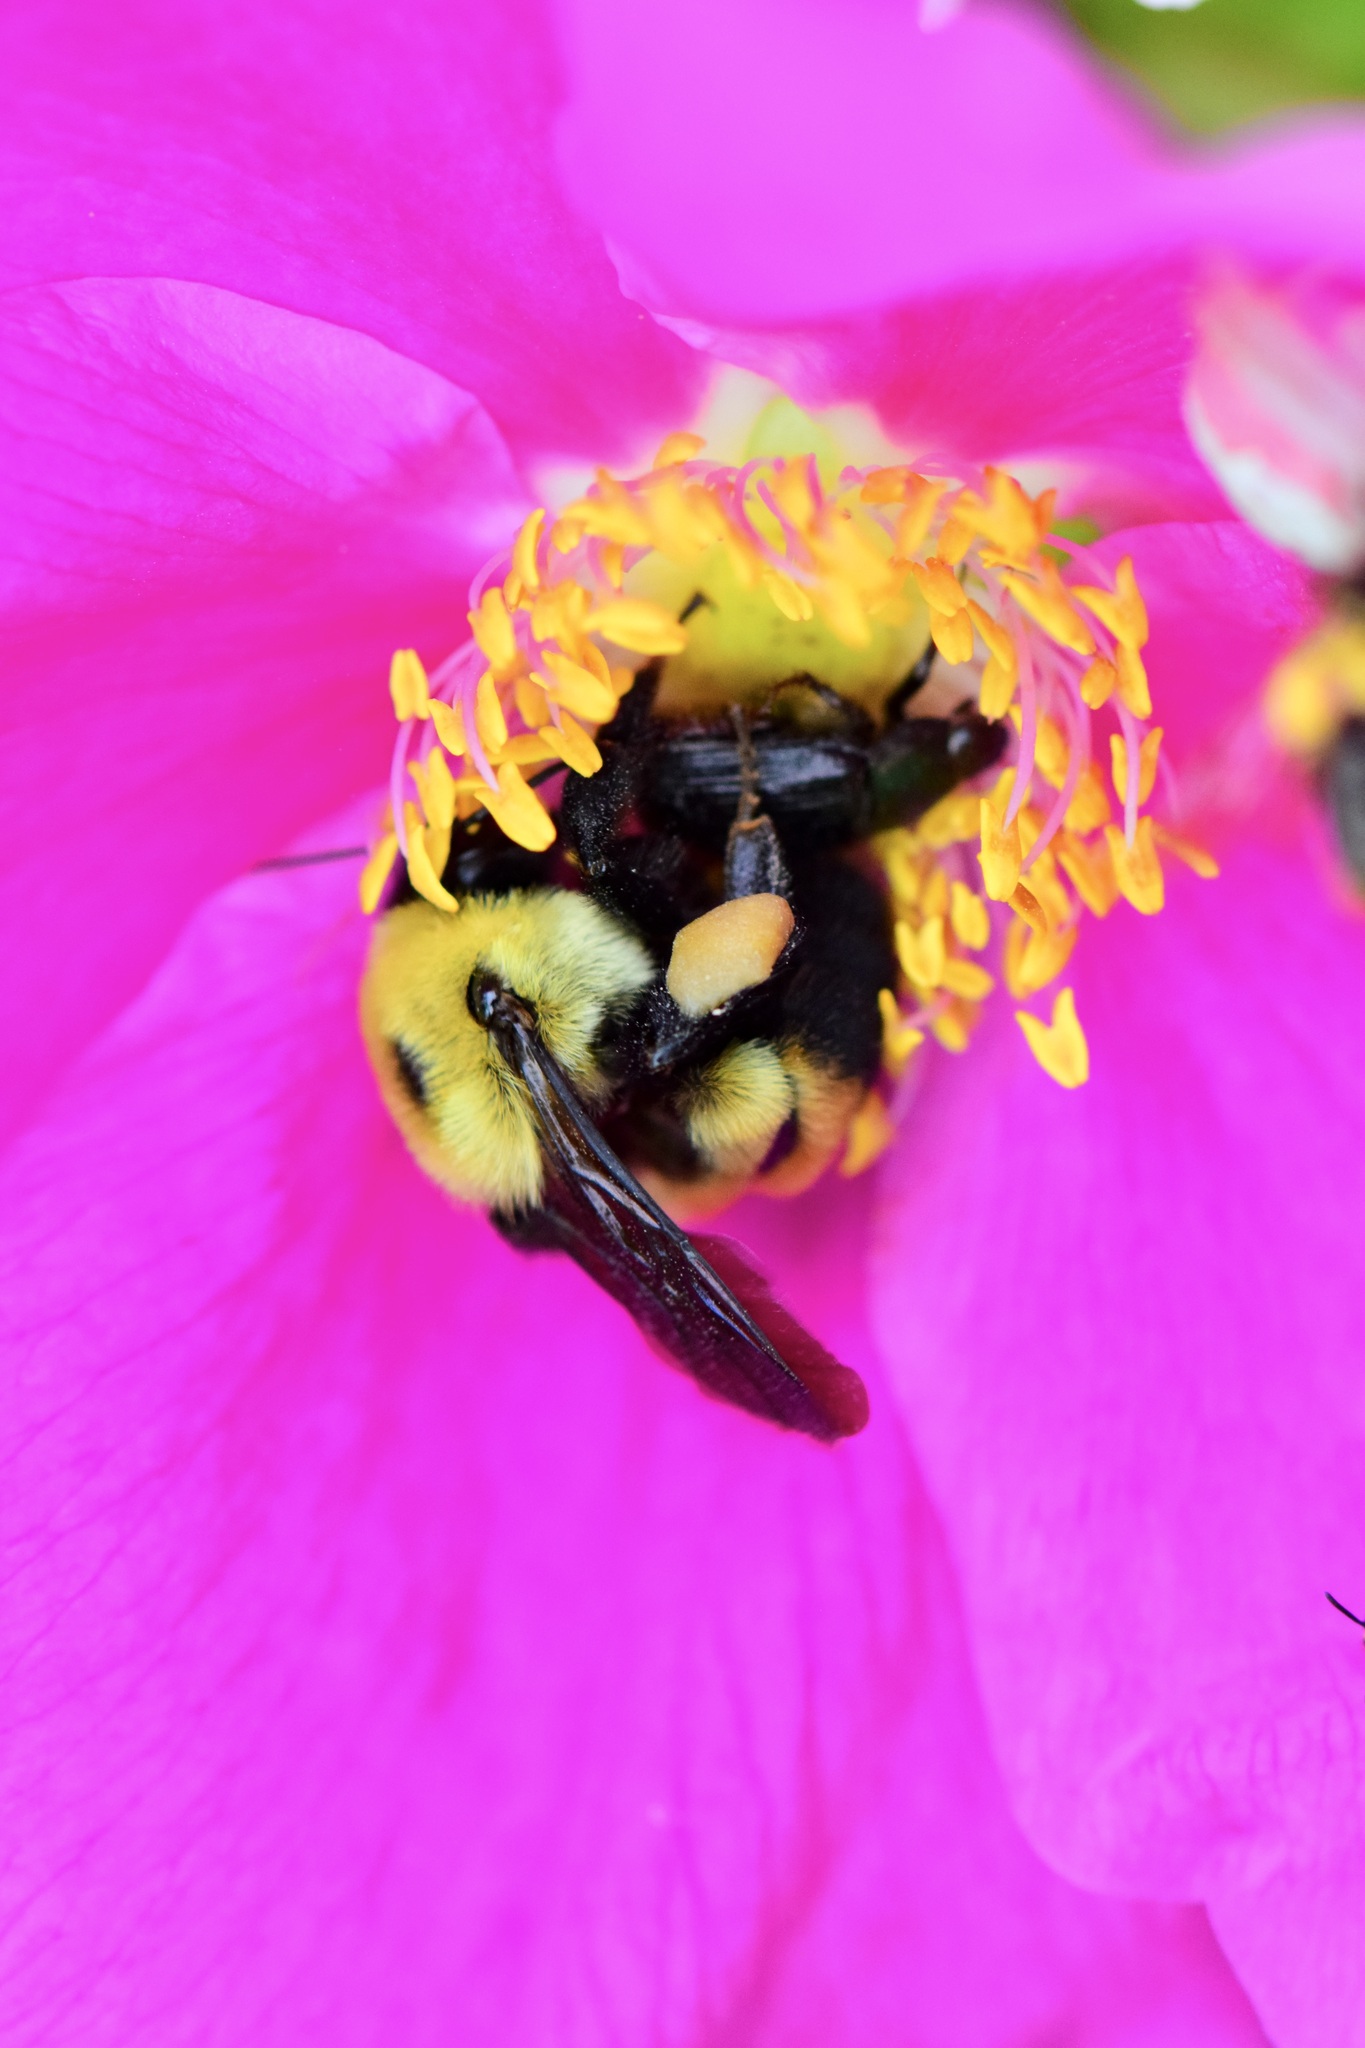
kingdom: Animalia
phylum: Arthropoda
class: Insecta
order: Hymenoptera
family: Apidae
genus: Bombus
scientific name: Bombus griseocollis
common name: Brown-belted bumble bee
